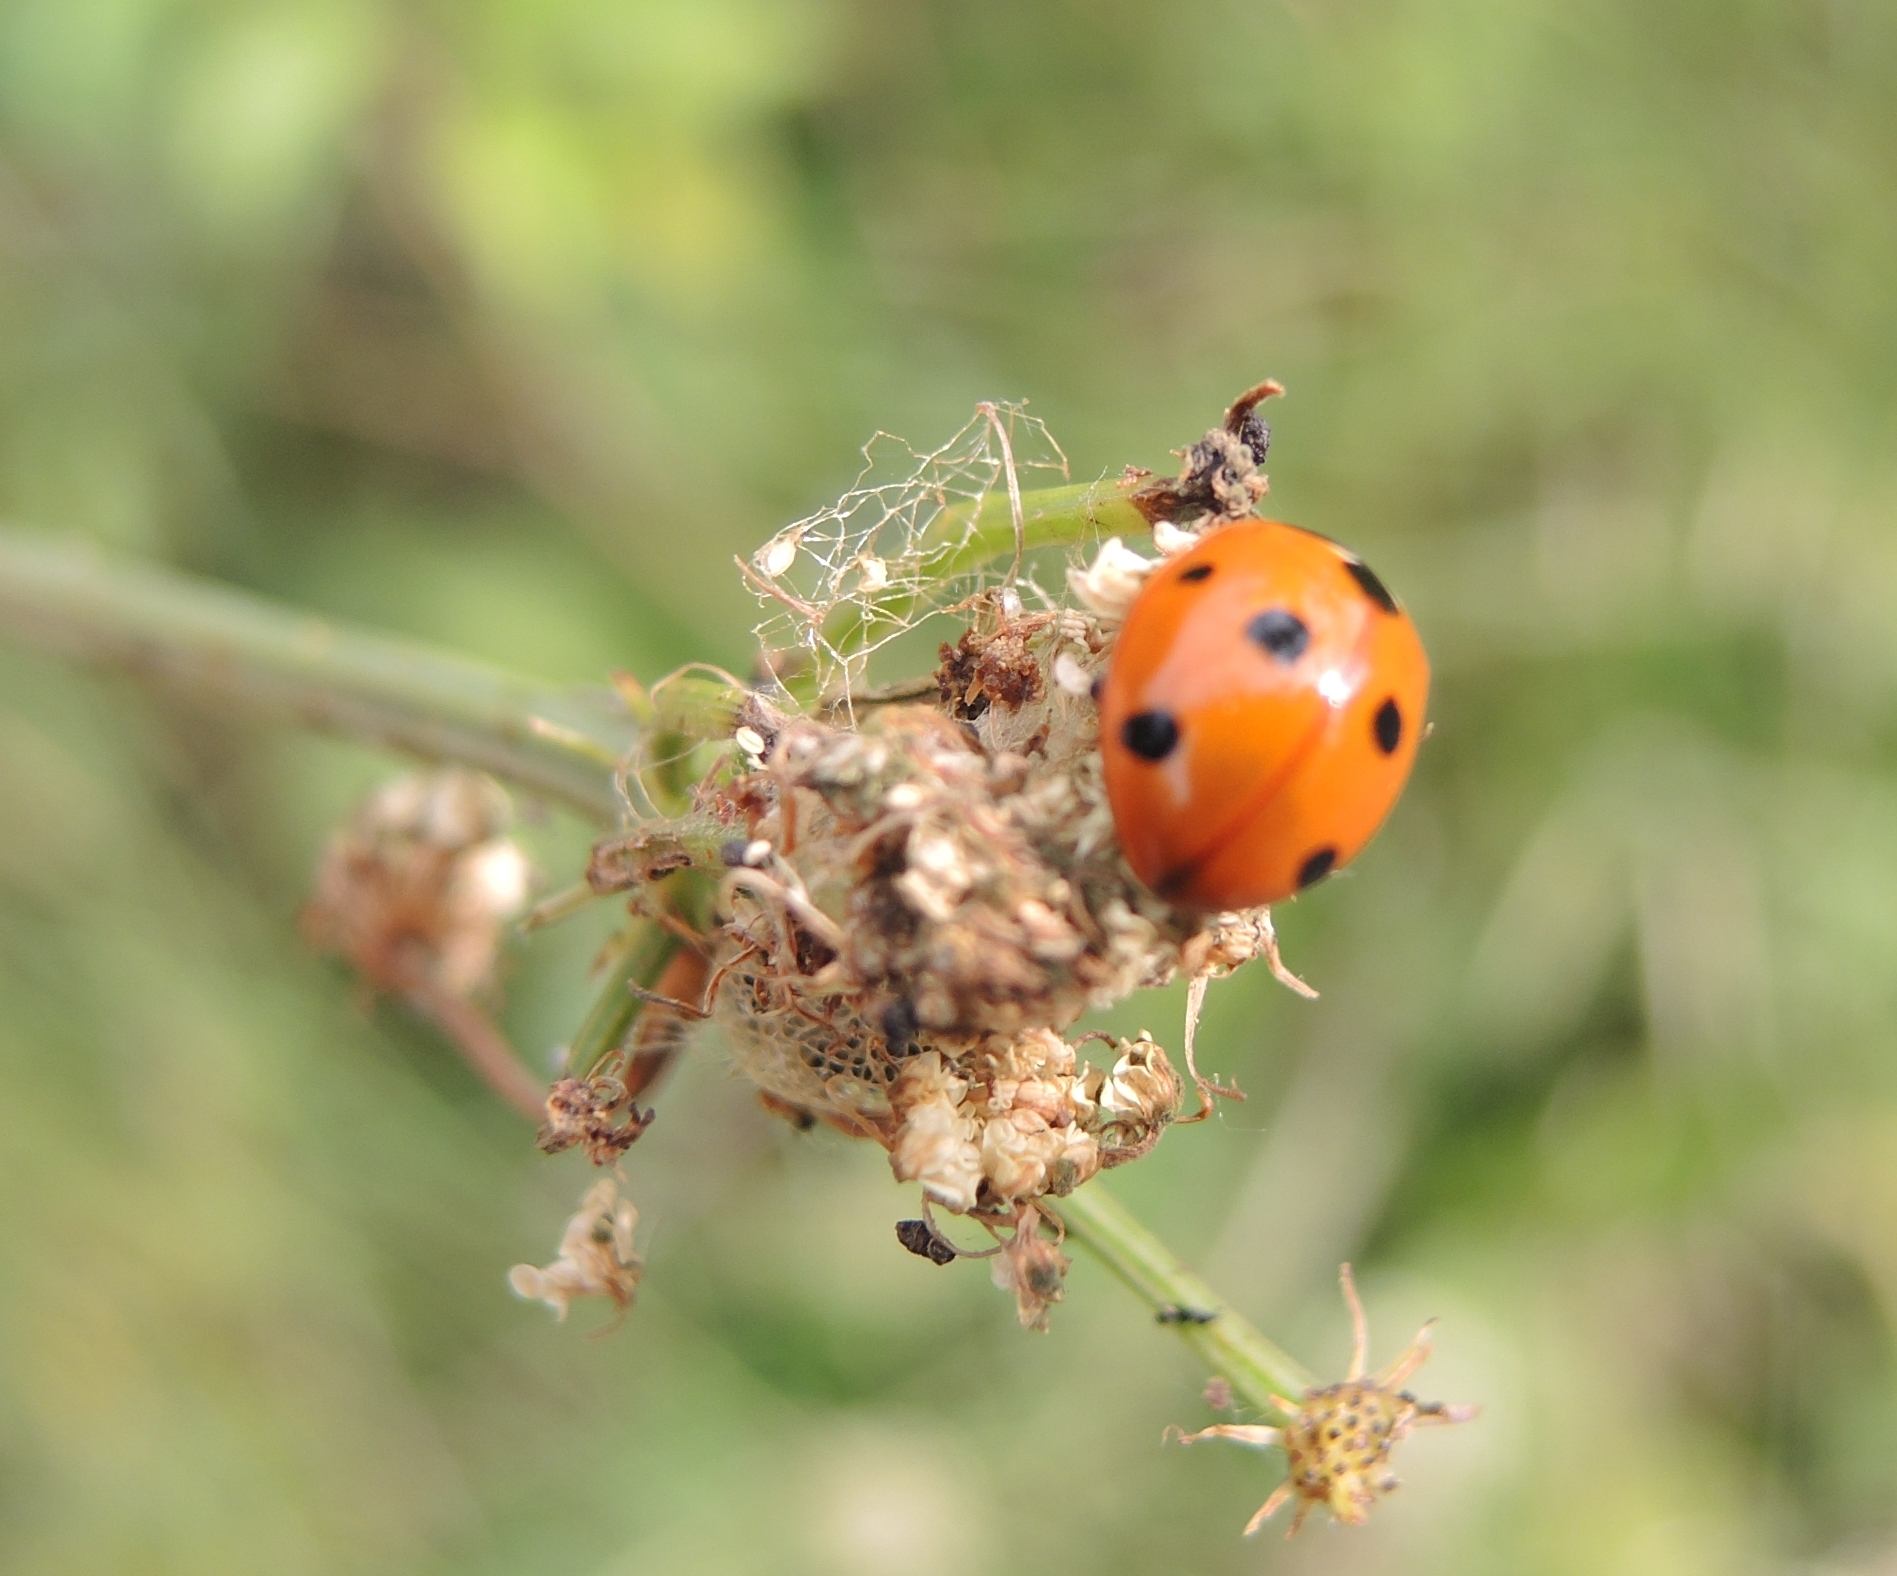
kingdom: Animalia
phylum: Arthropoda
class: Insecta
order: Coleoptera
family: Coccinellidae
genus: Coccinella
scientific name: Coccinella septempunctata
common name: Sevenspotted lady beetle
